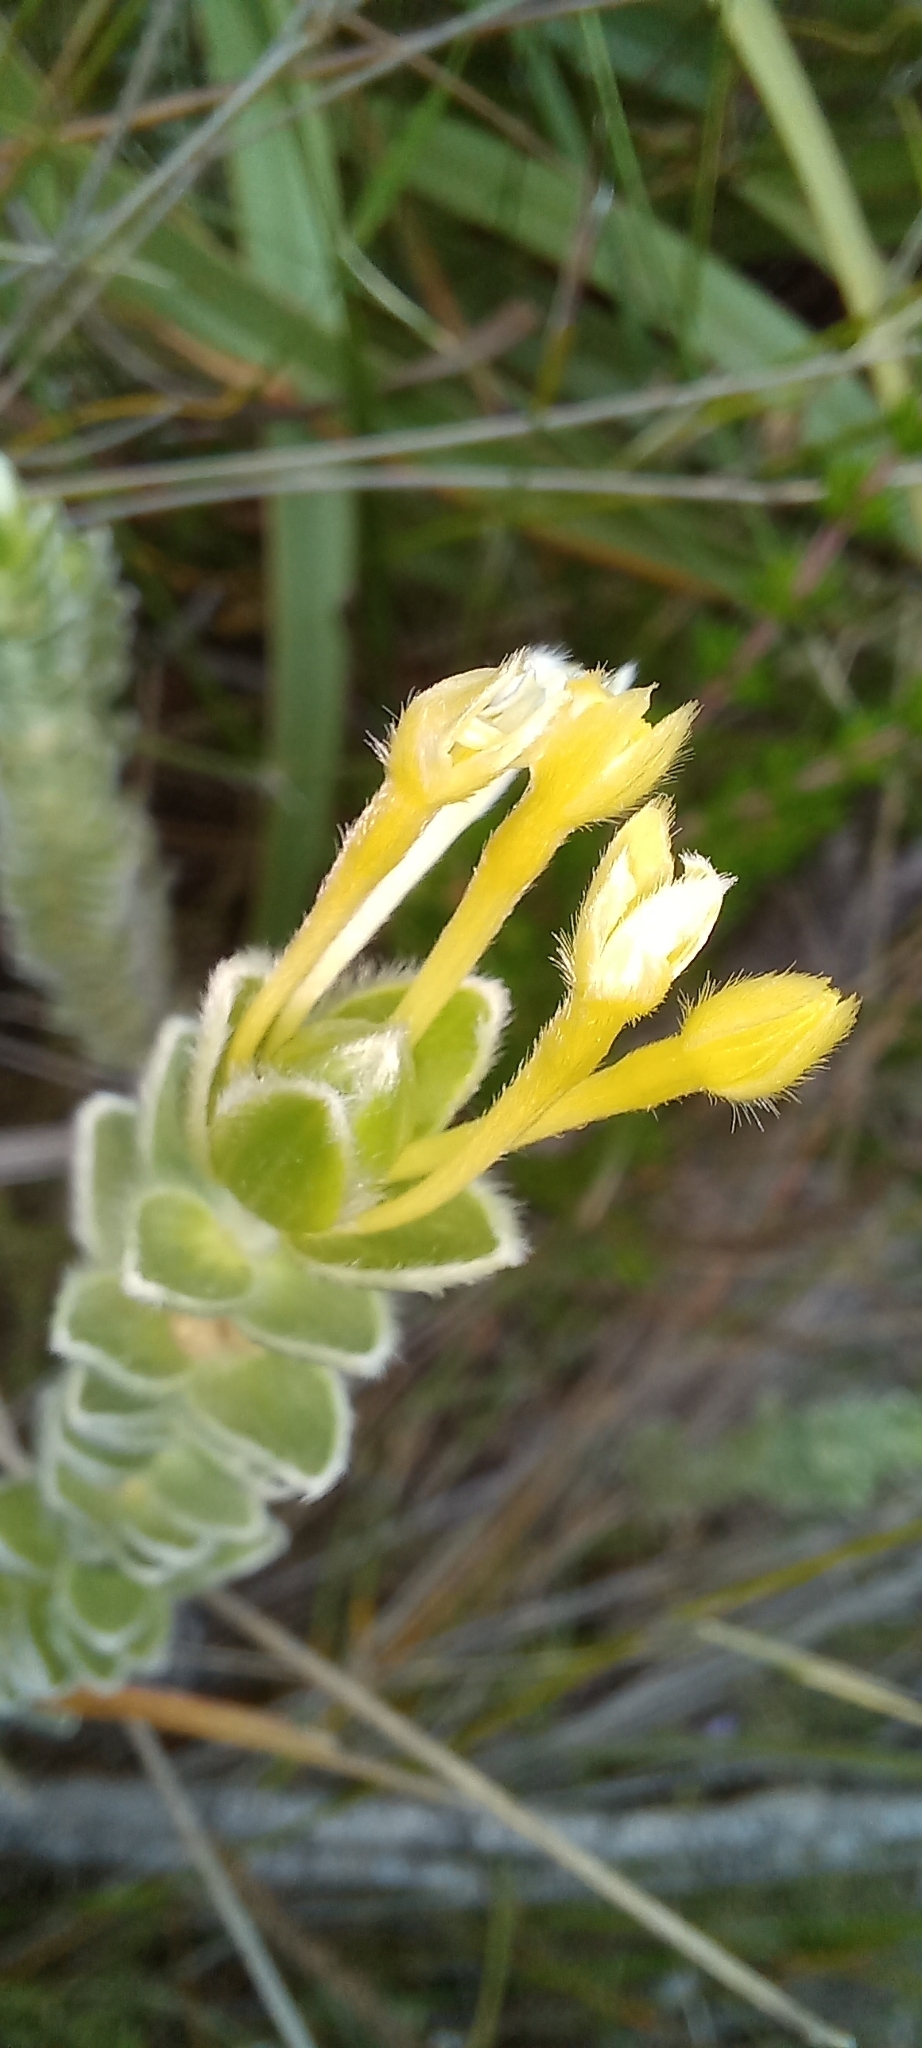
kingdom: Plantae
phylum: Tracheophyta
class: Magnoliopsida
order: Malvales
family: Thymelaeaceae
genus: Gnidia
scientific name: Gnidia anomala
